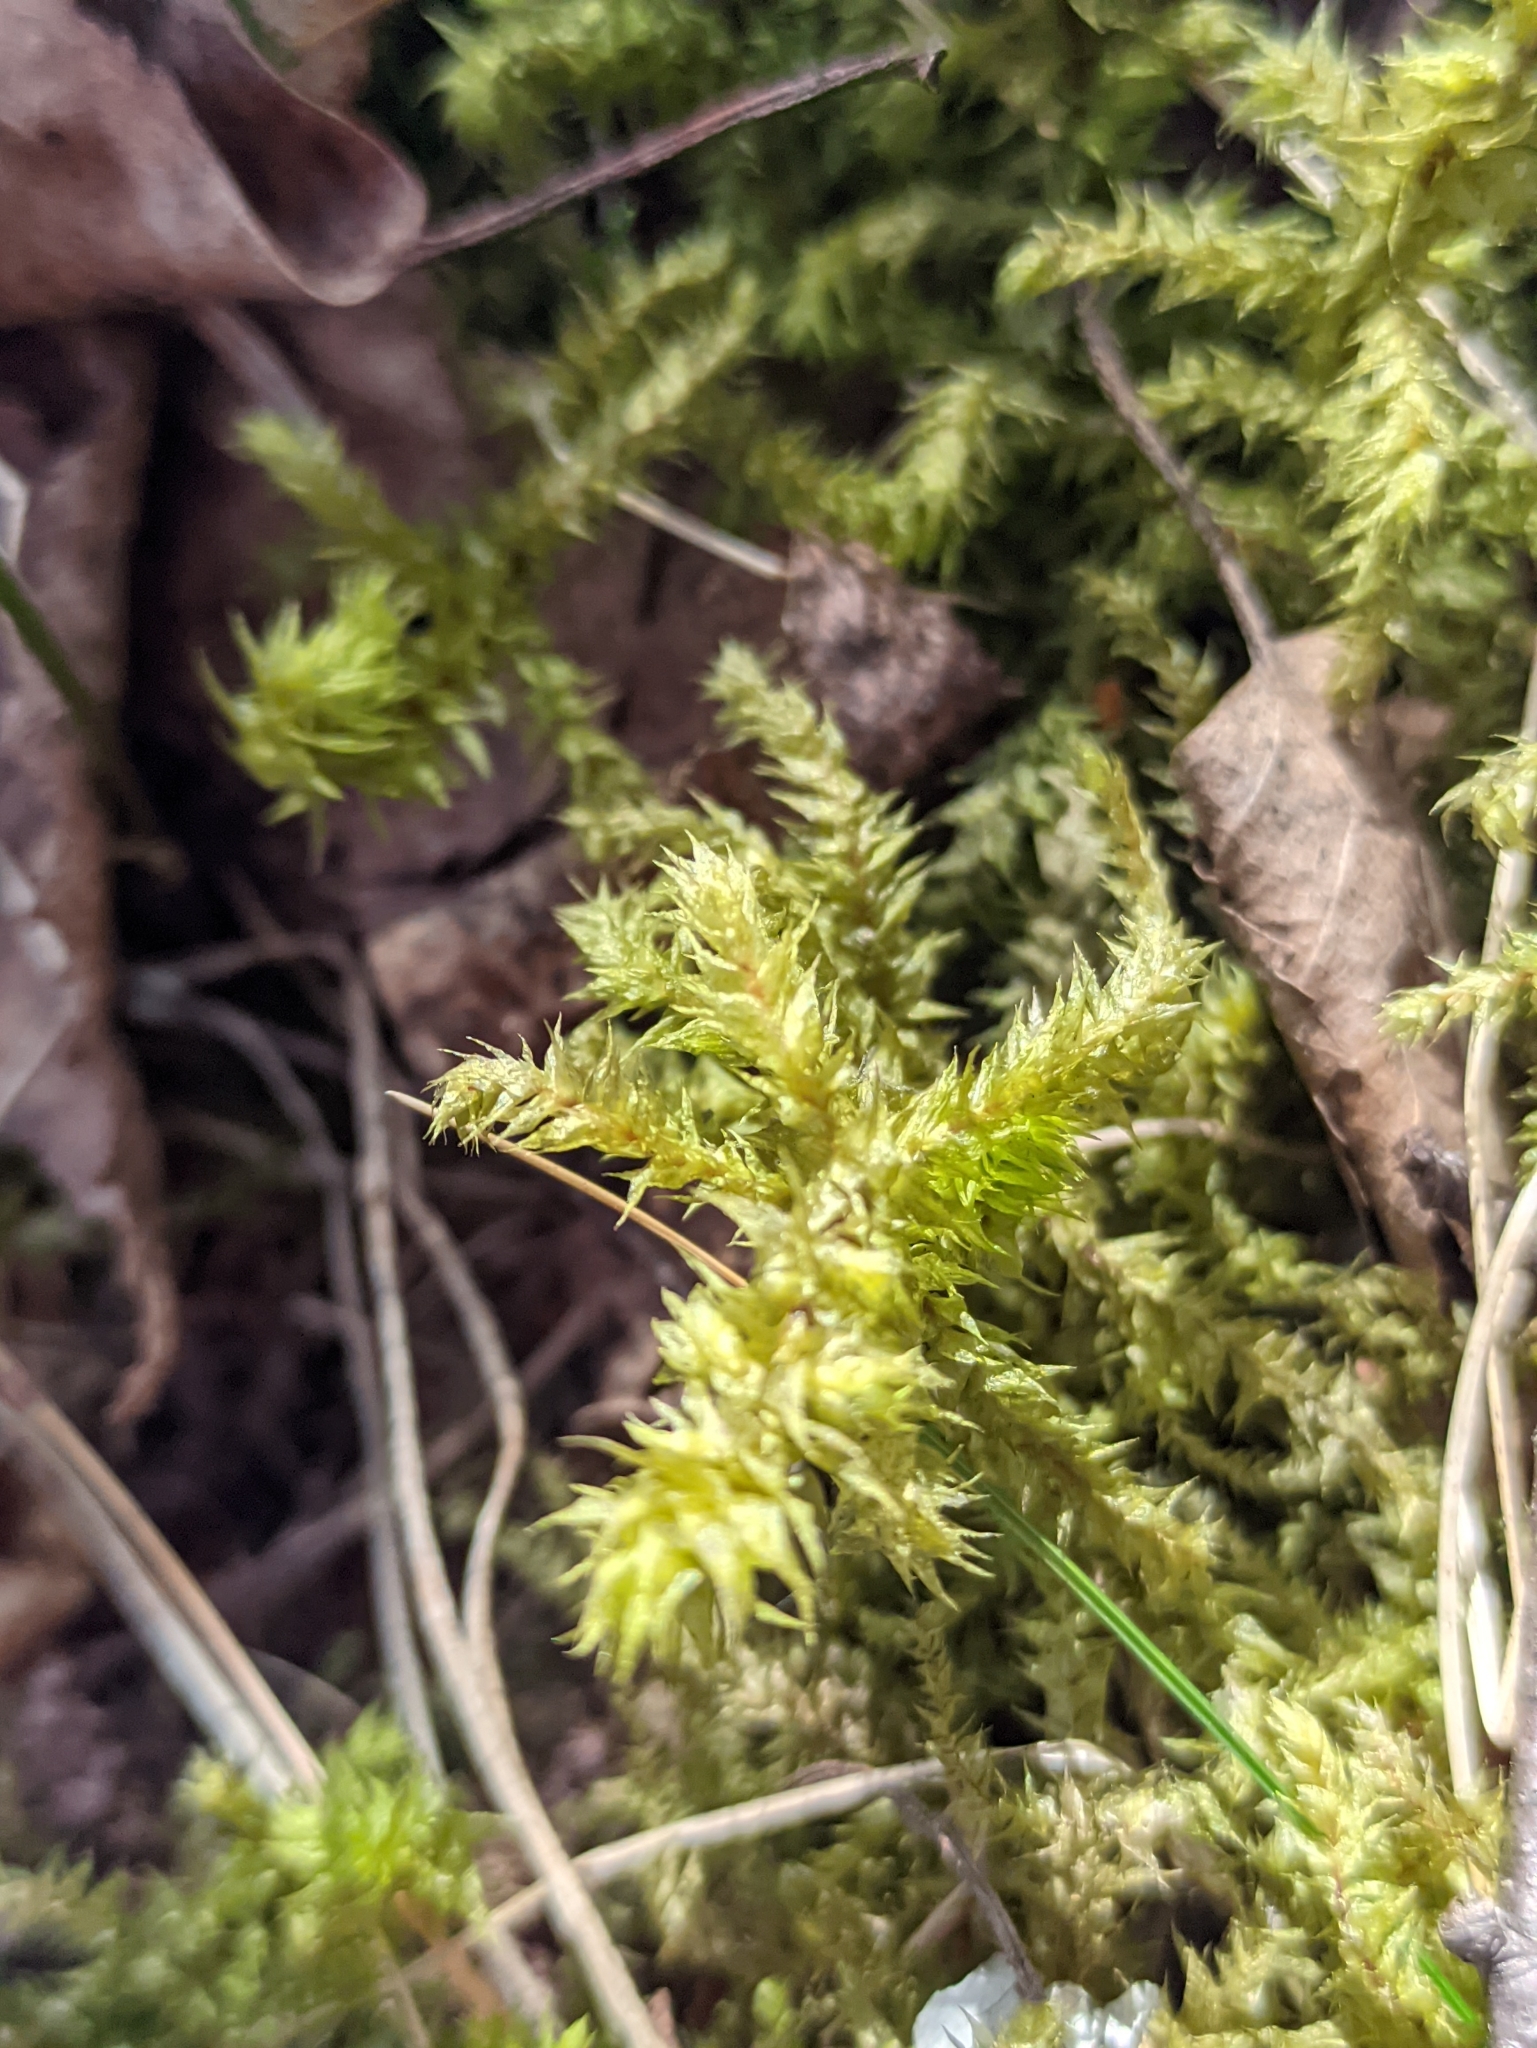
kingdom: Plantae
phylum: Bryophyta
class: Bryopsida
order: Hypnales
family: Hylocomiaceae
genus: Hylocomiadelphus
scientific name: Hylocomiadelphus triquetrus
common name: Rough goose neck moss
